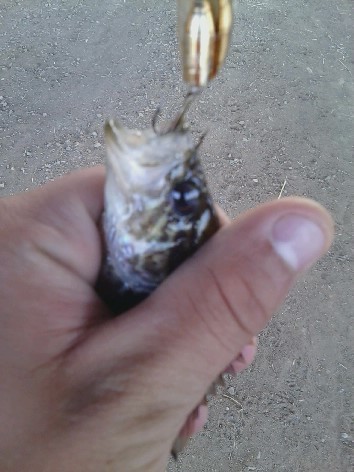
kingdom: Animalia
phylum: Chordata
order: Perciformes
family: Centrarchidae
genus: Lepomis
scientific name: Lepomis gulosus
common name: Warmouth
